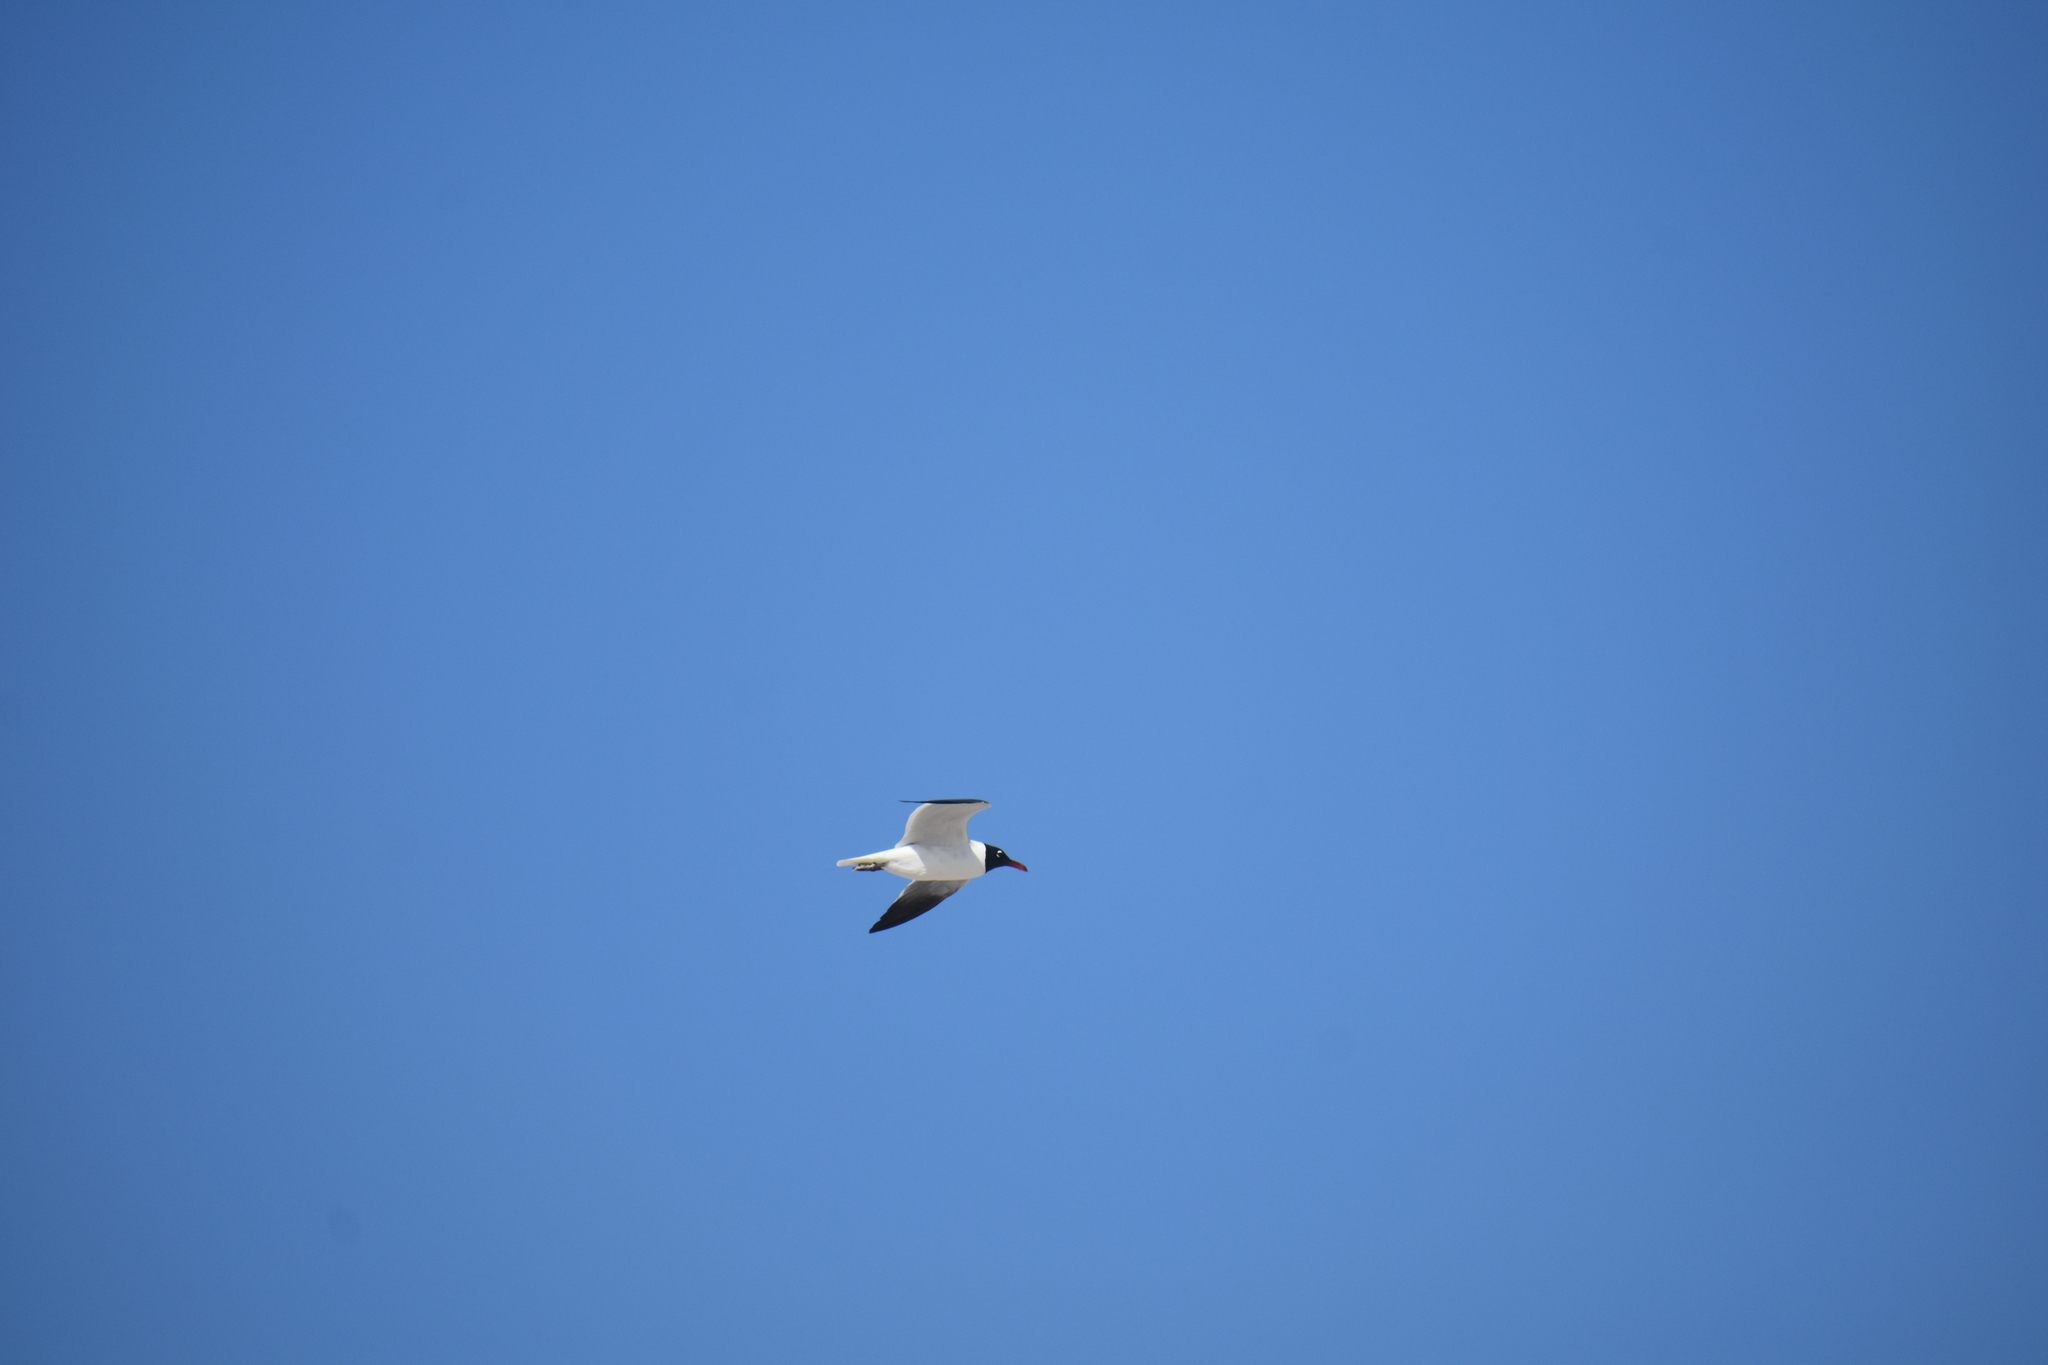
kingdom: Animalia
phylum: Chordata
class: Aves
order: Charadriiformes
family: Laridae
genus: Leucophaeus
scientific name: Leucophaeus atricilla
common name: Laughing gull
